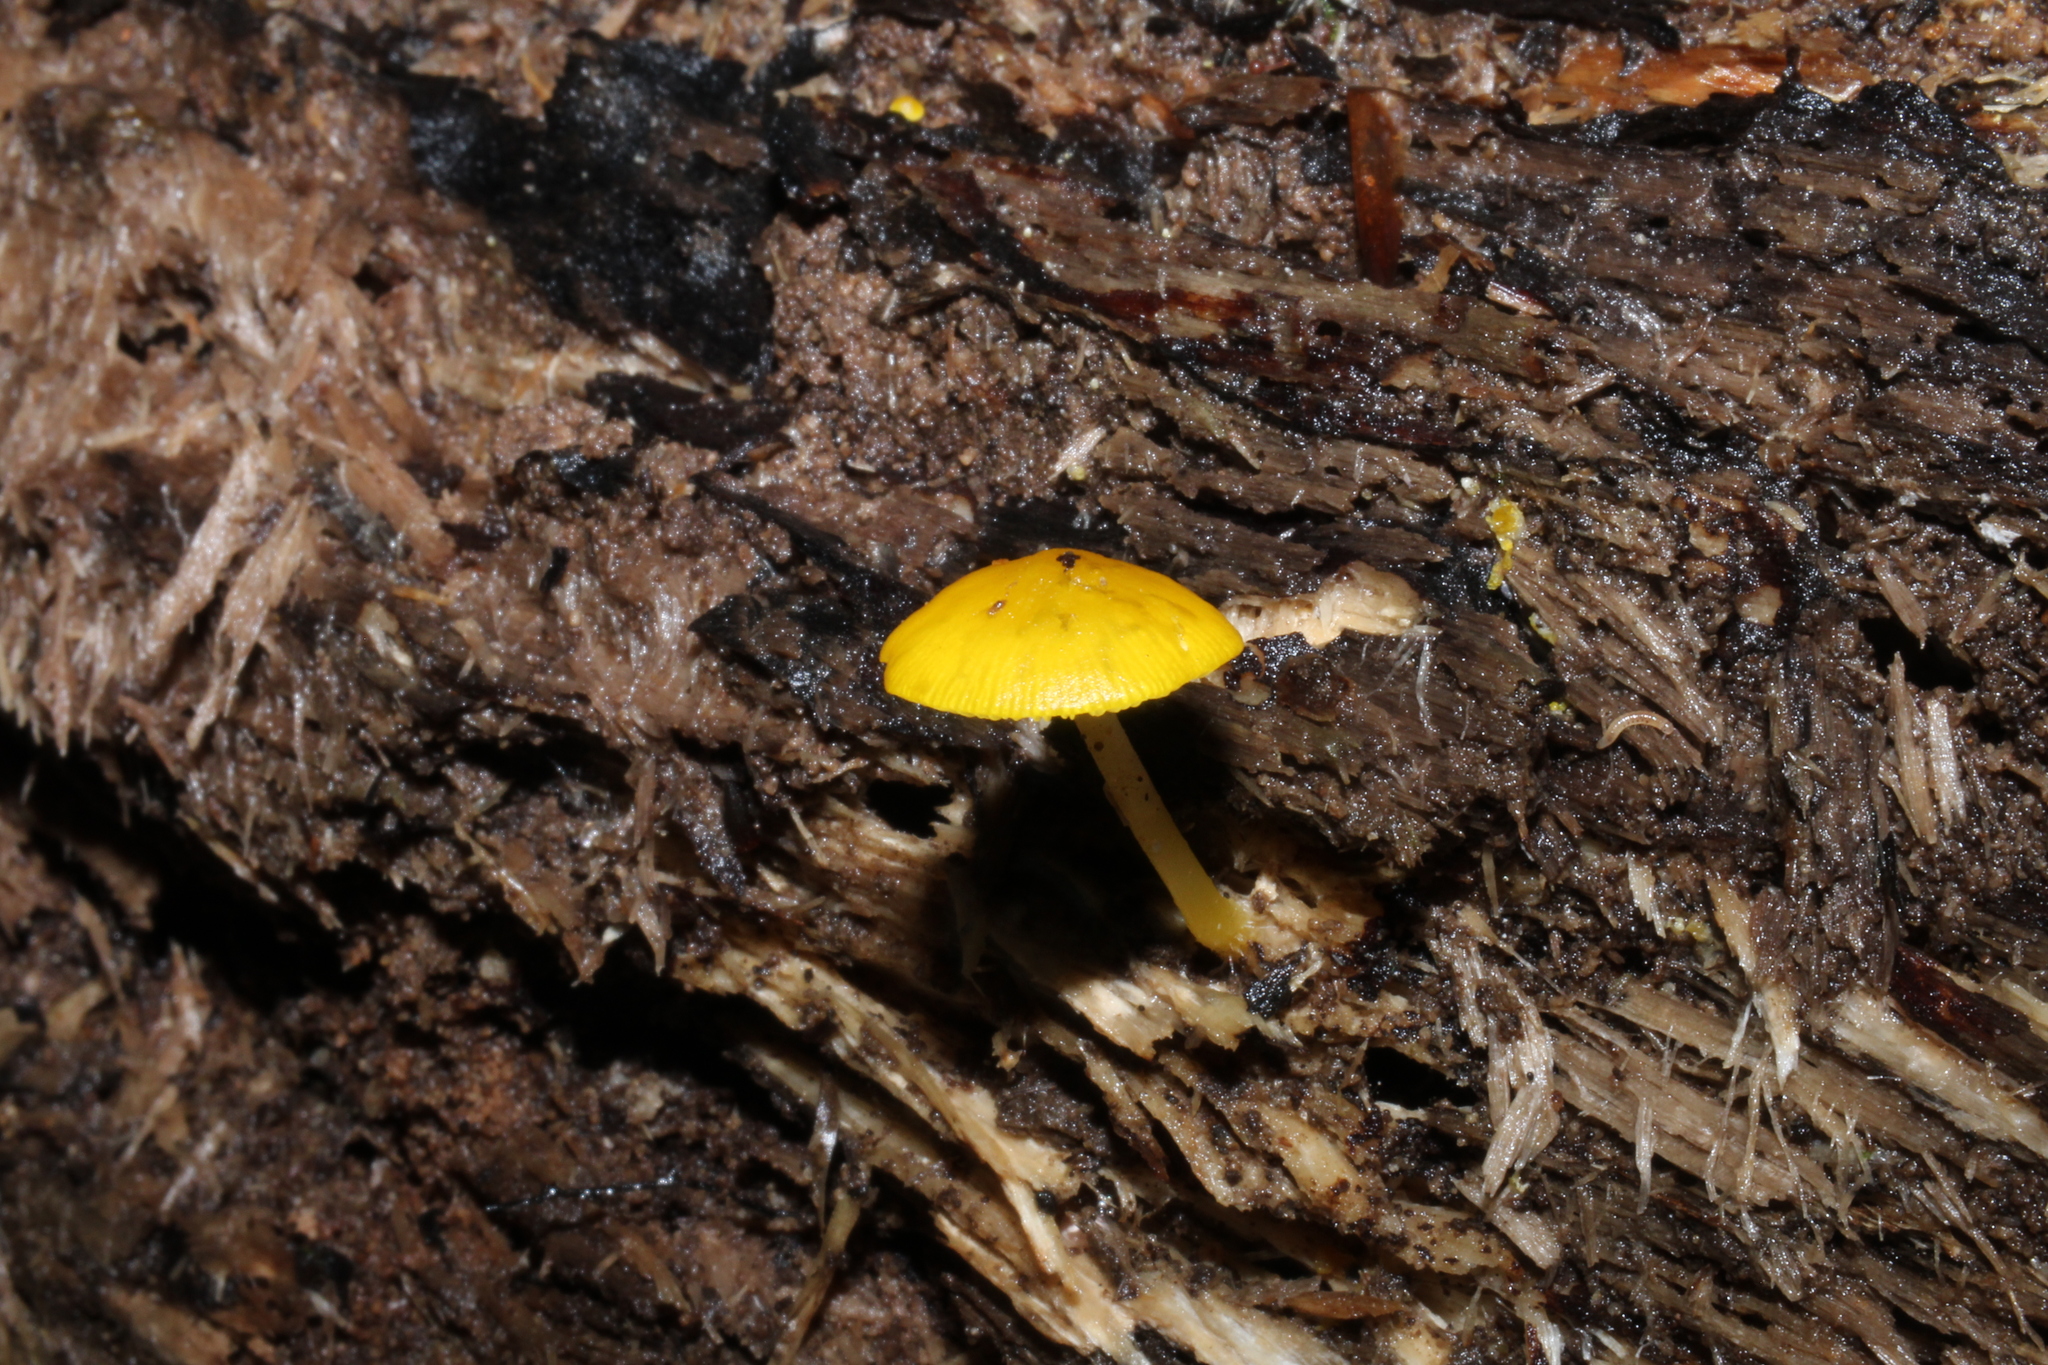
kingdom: Fungi
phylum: Basidiomycota
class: Agaricomycetes
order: Agaricales
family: Pluteaceae
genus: Pluteus
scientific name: Pluteus chrysophlebius
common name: Yellow deer mushroom
